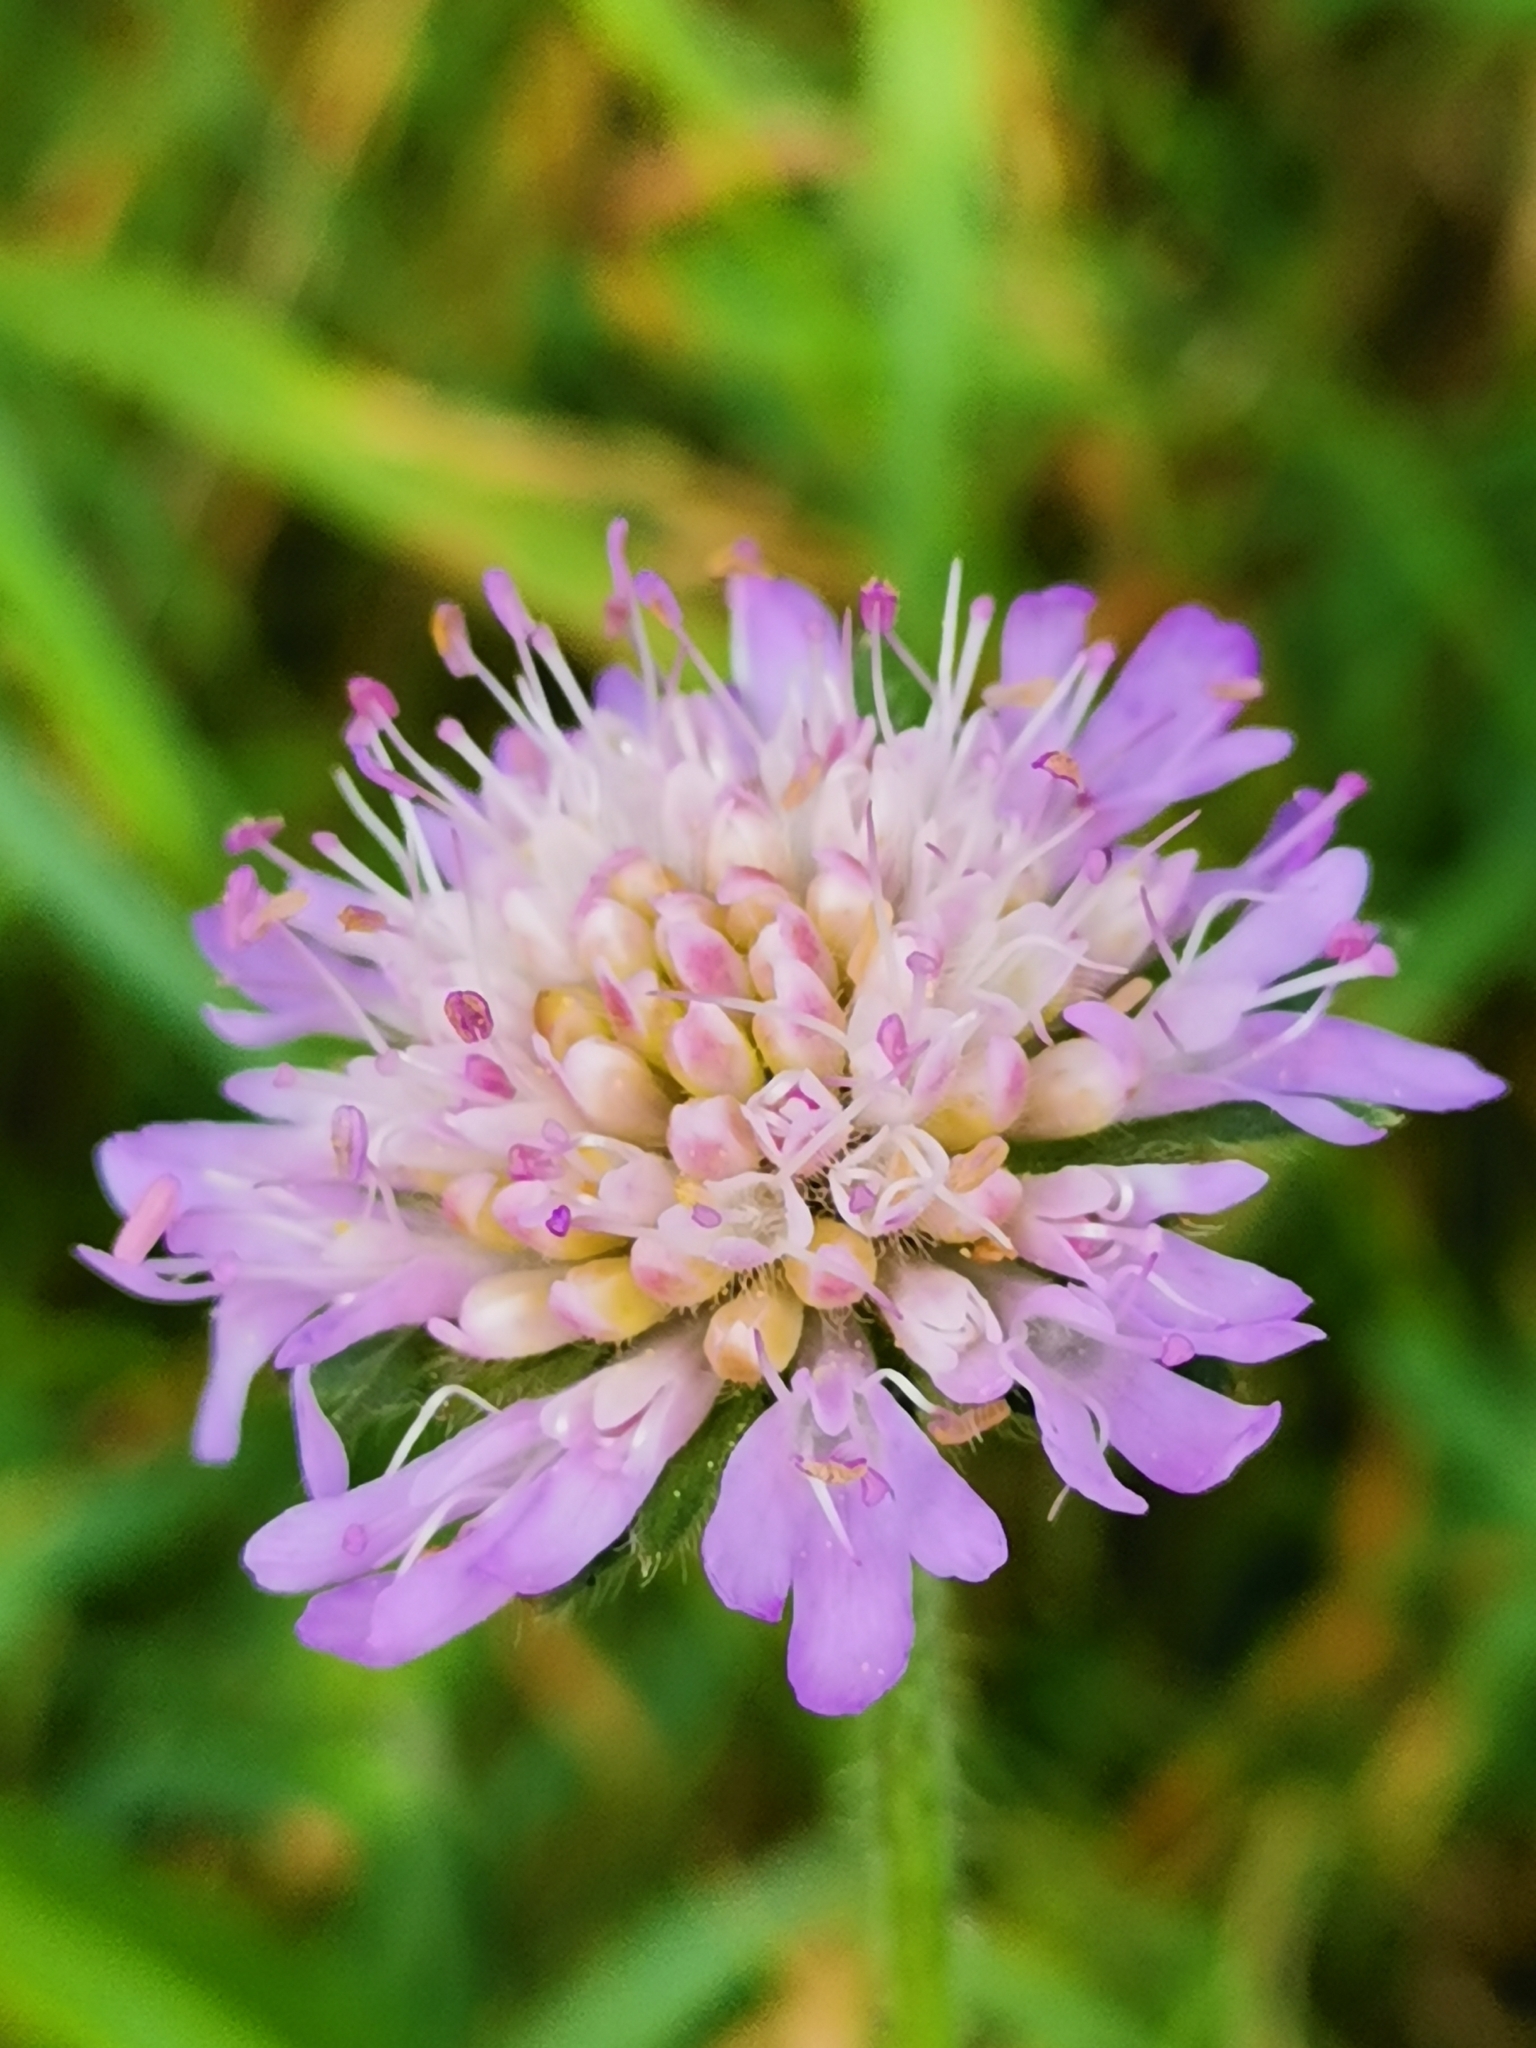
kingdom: Plantae
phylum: Tracheophyta
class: Magnoliopsida
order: Dipsacales
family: Caprifoliaceae
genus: Knautia
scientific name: Knautia arvensis
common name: Field scabiosa
